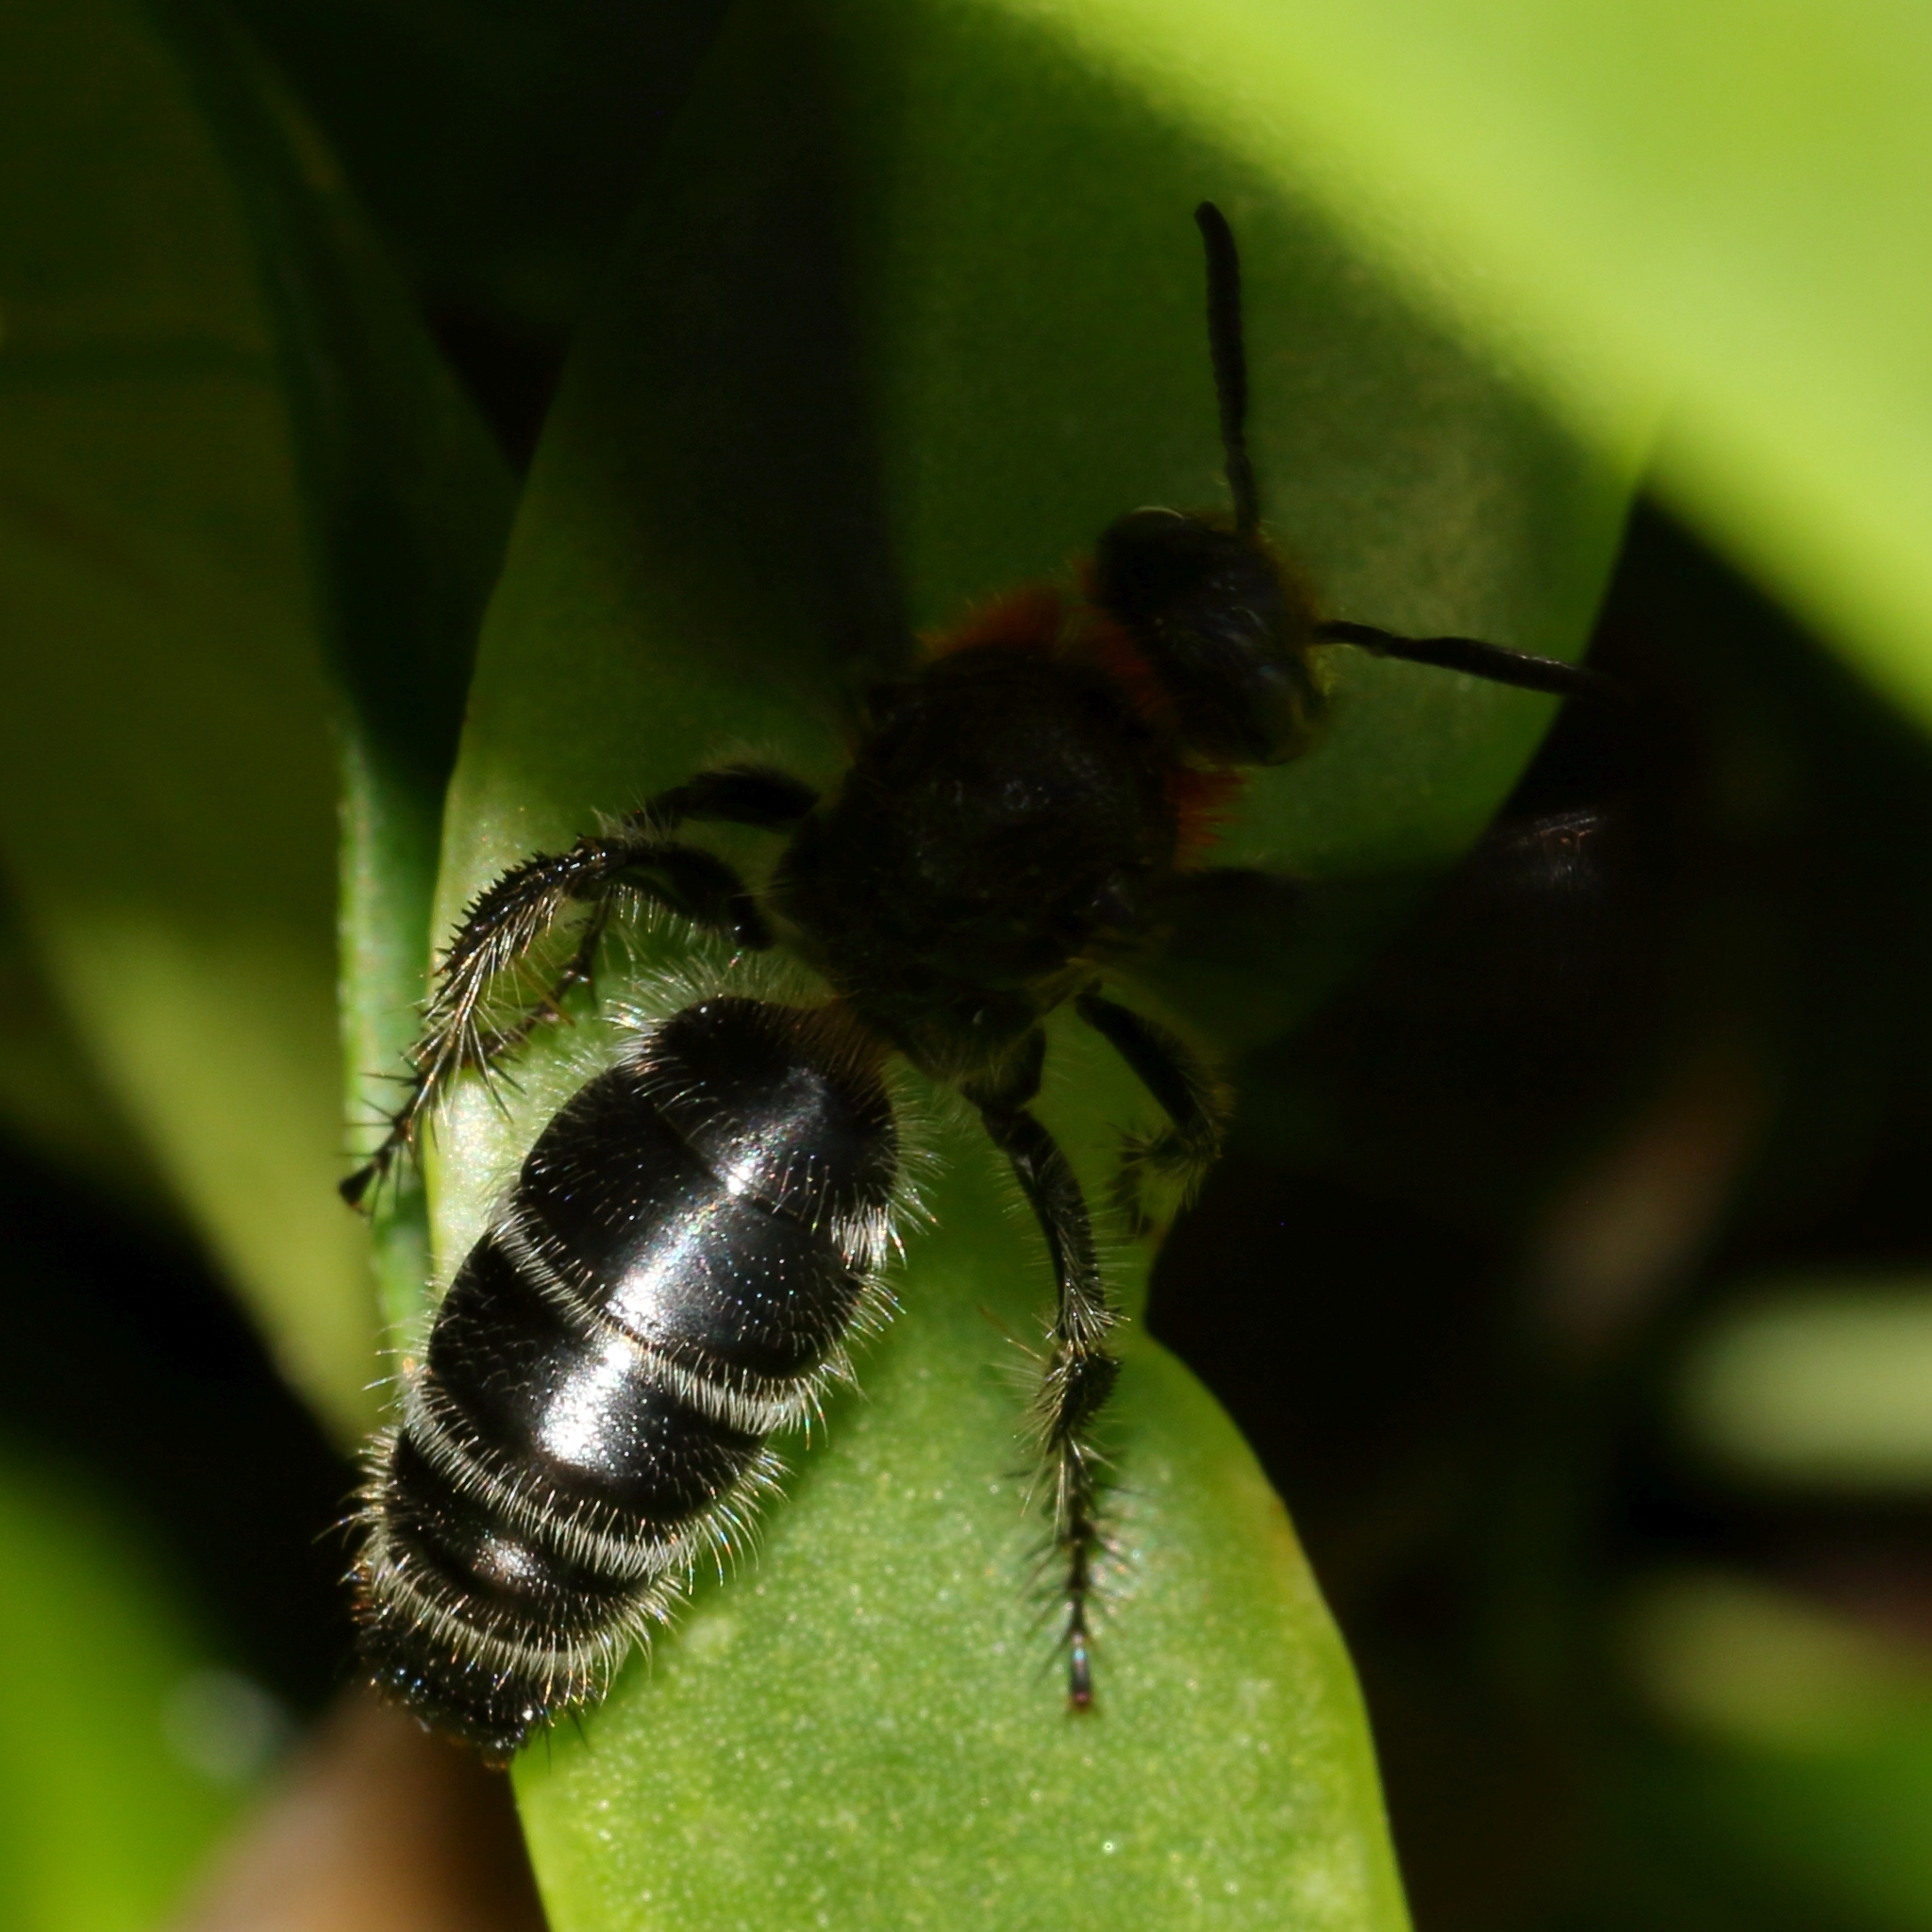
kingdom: Animalia
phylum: Arthropoda
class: Insecta
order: Hymenoptera
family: Scoliidae
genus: Cathimeris
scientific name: Cathimeris
